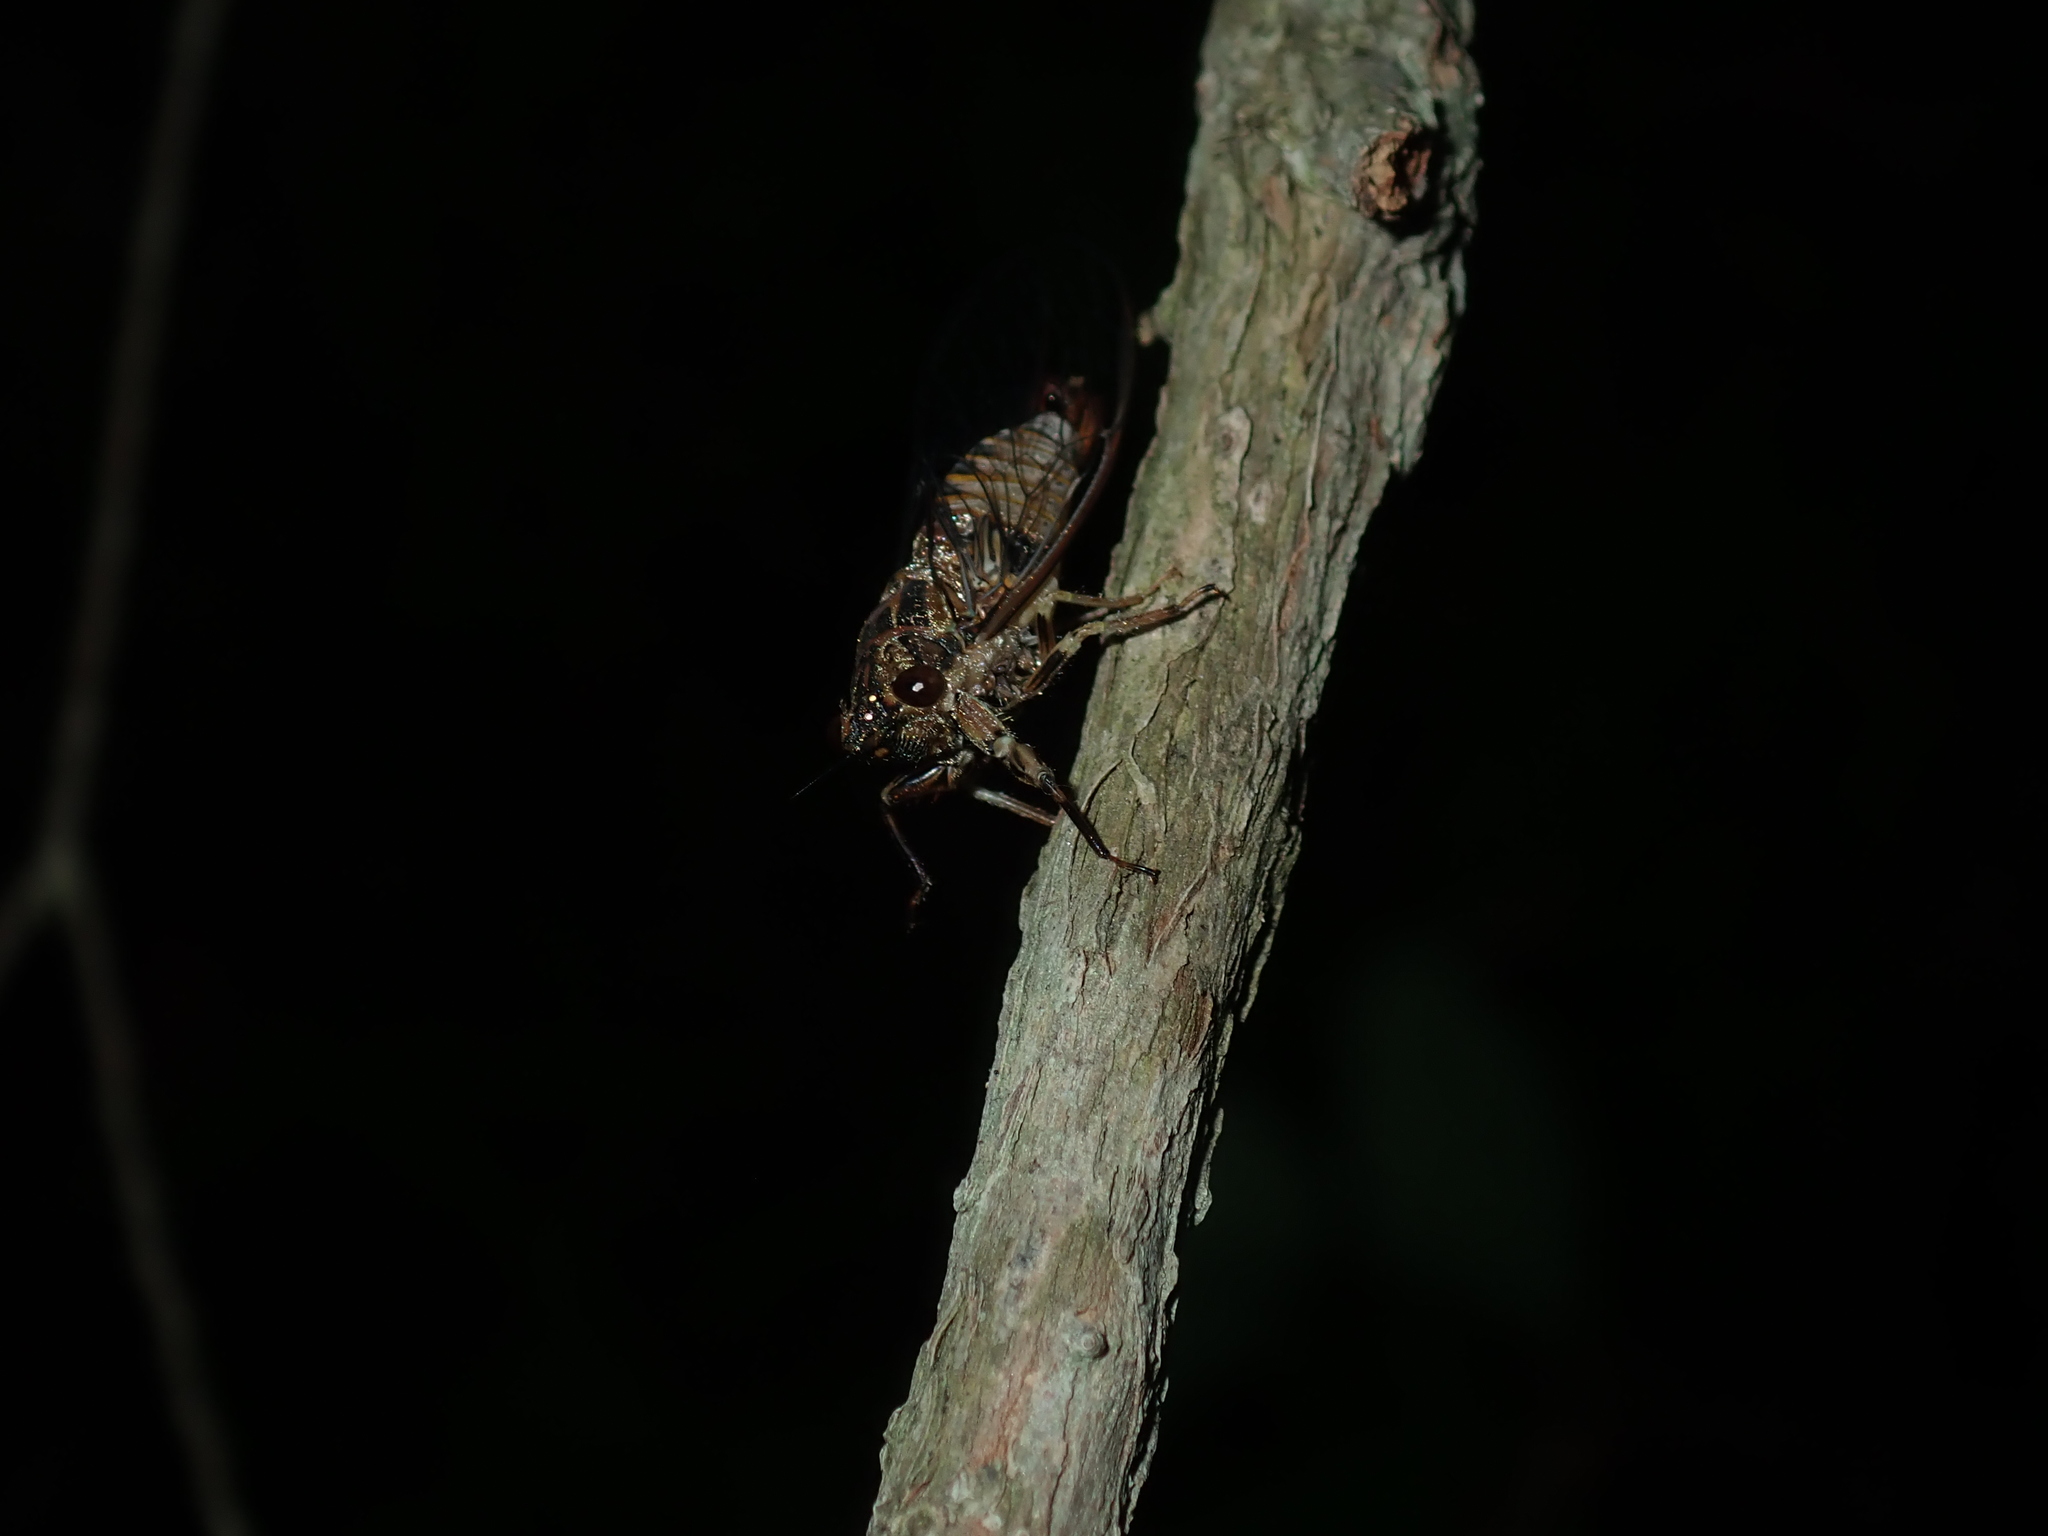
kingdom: Animalia
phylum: Arthropoda
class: Insecta
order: Hemiptera
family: Cicadidae
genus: Yoyetta
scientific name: Yoyetta celis
